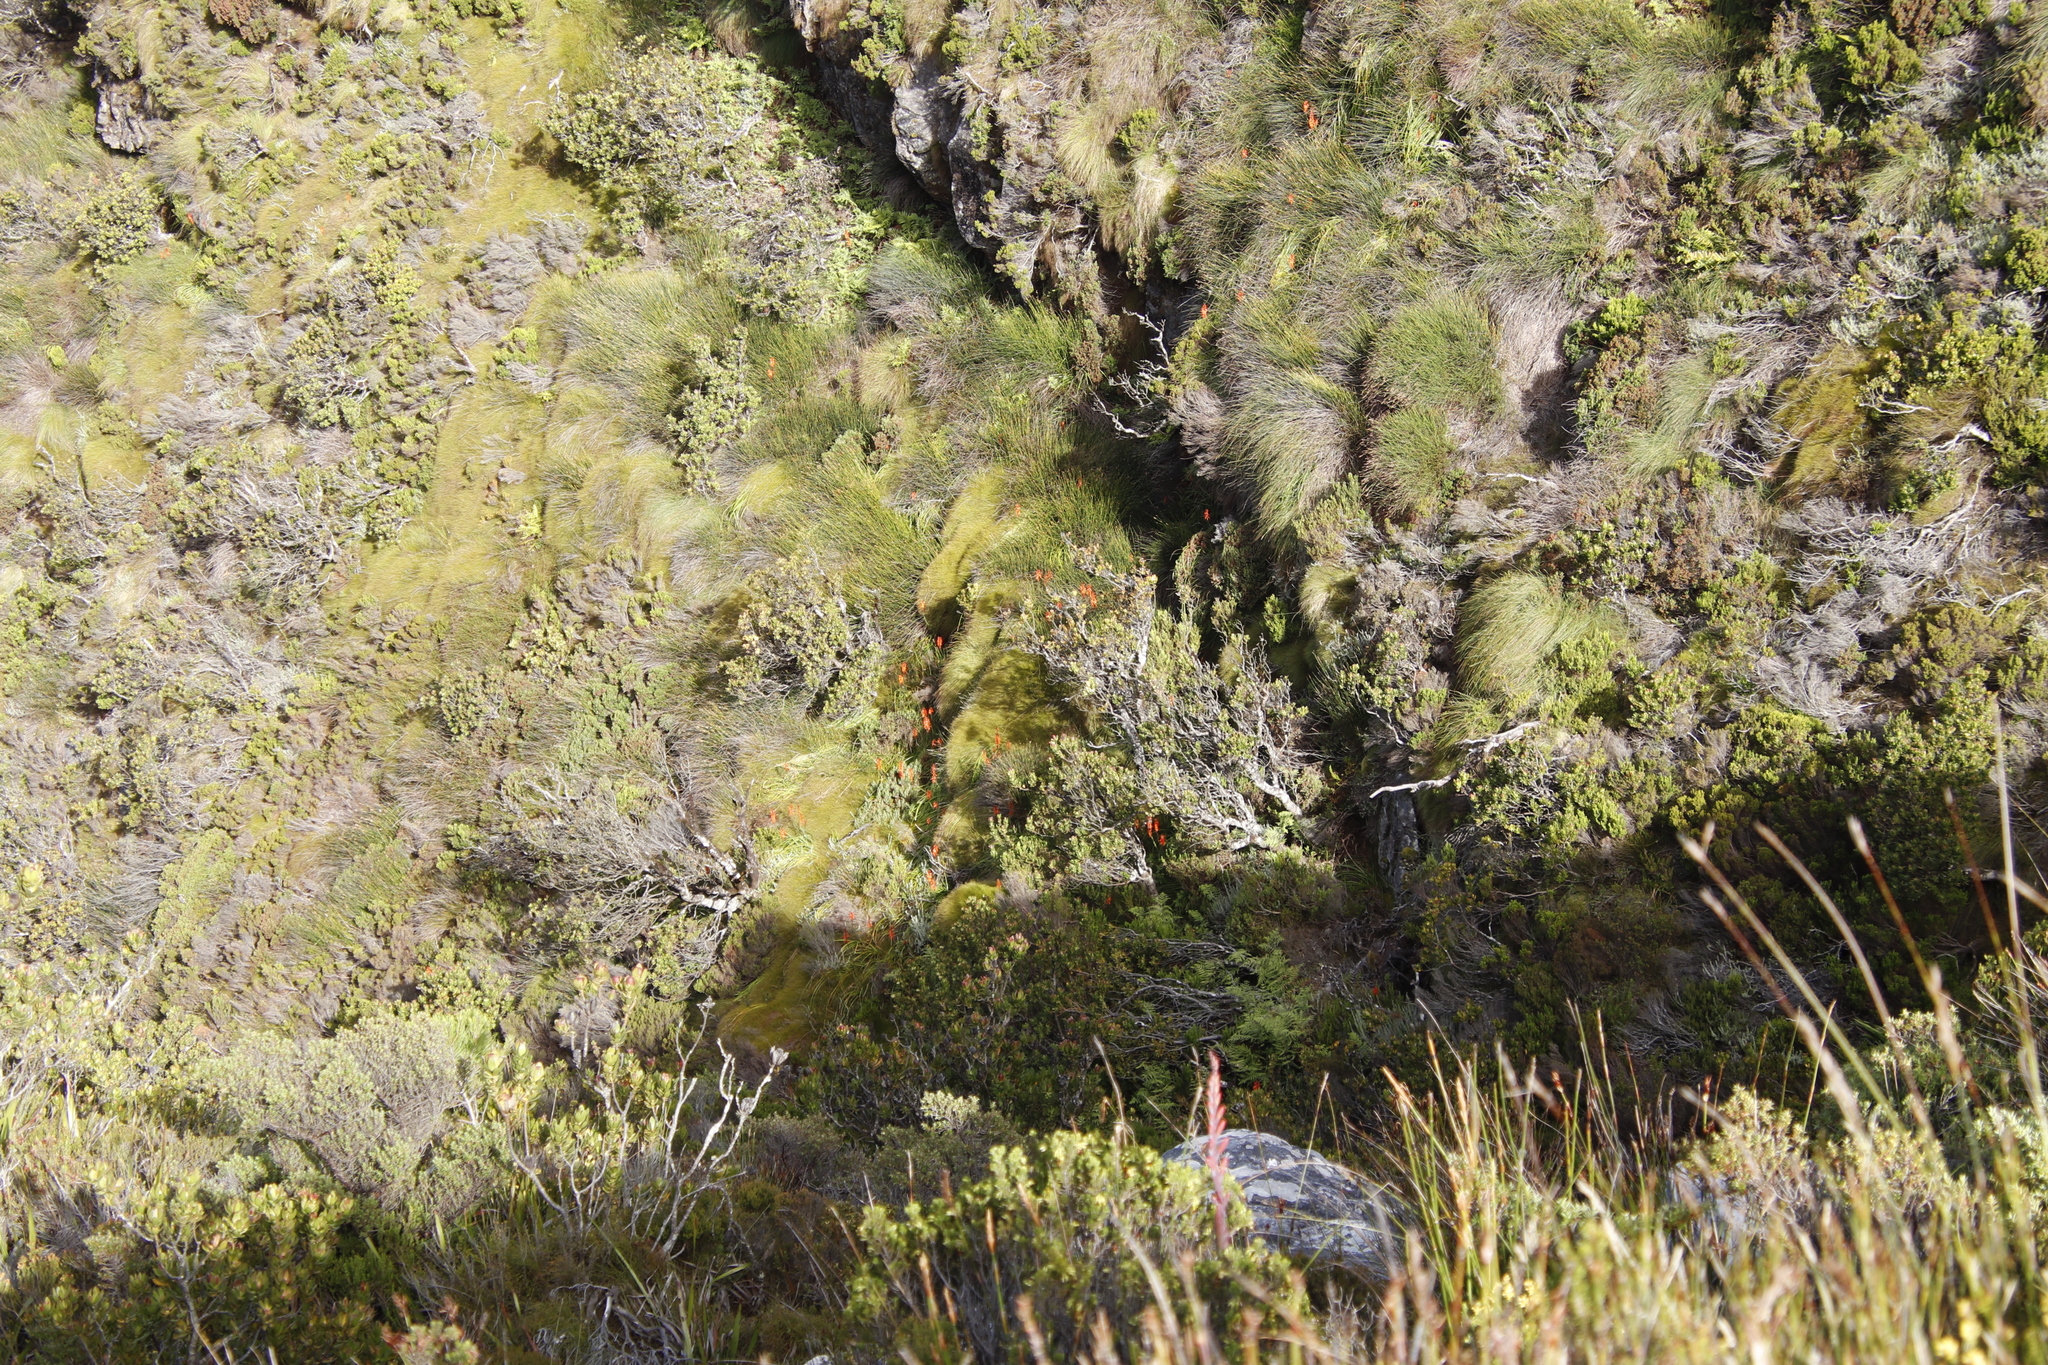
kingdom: Plantae
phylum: Tracheophyta
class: Liliopsida
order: Asparagales
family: Asphodelaceae
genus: Kniphofia
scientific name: Kniphofia tabularis
